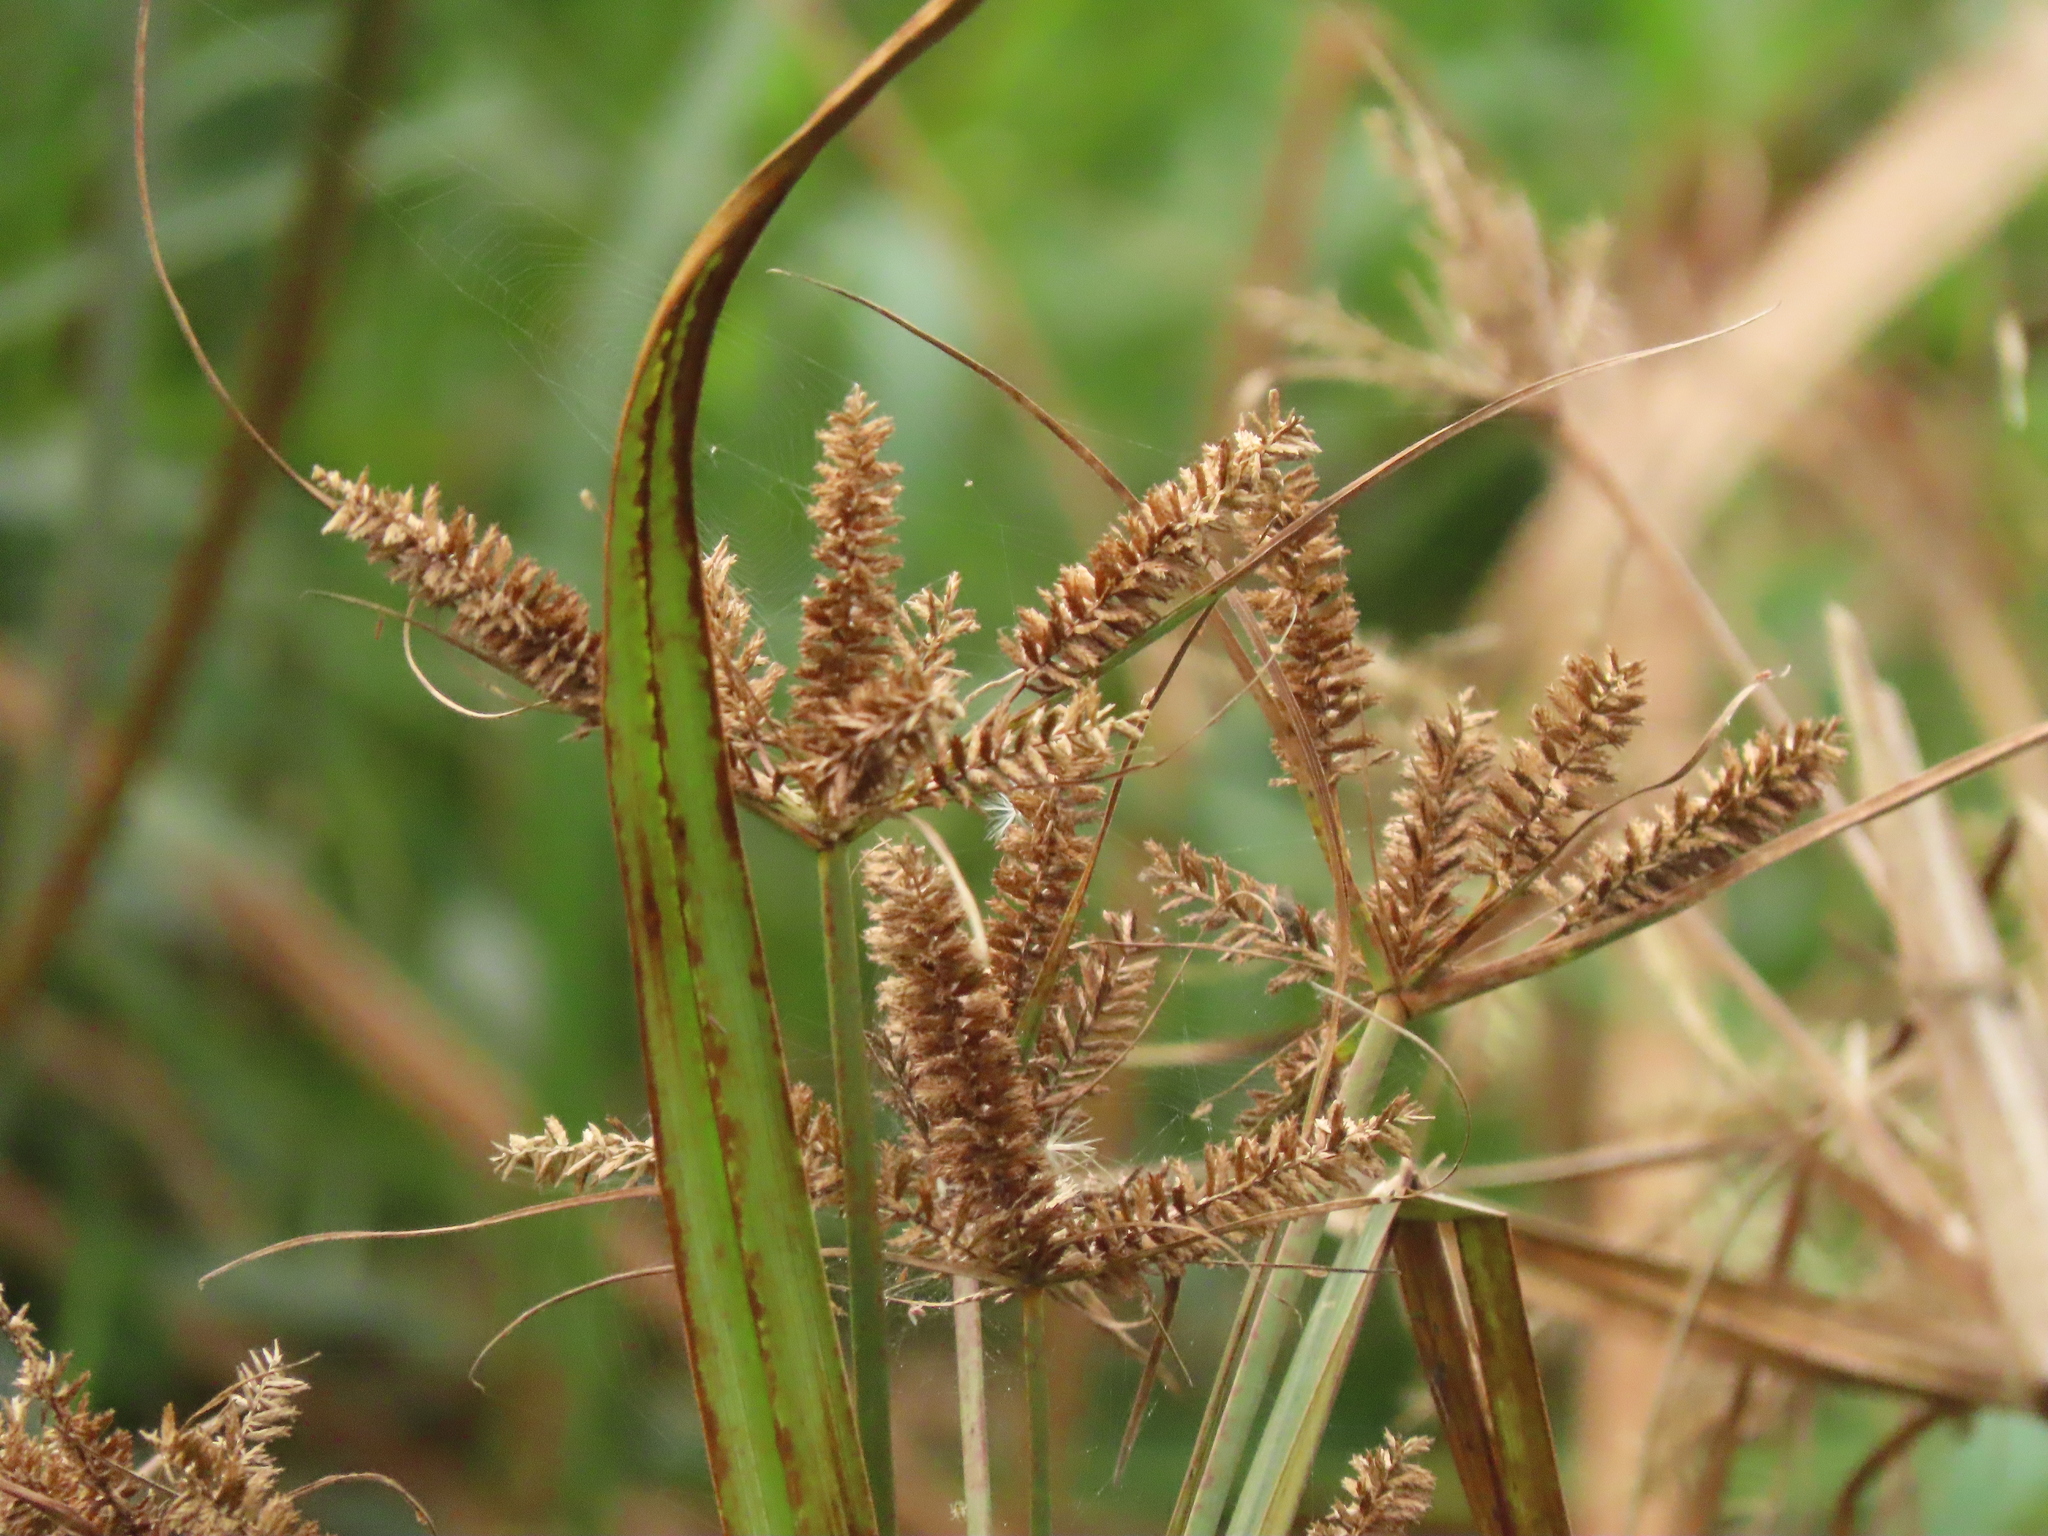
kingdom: Plantae
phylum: Tracheophyta
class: Liliopsida
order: Poales
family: Cyperaceae
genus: Cyperus
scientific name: Cyperus exaltatus
